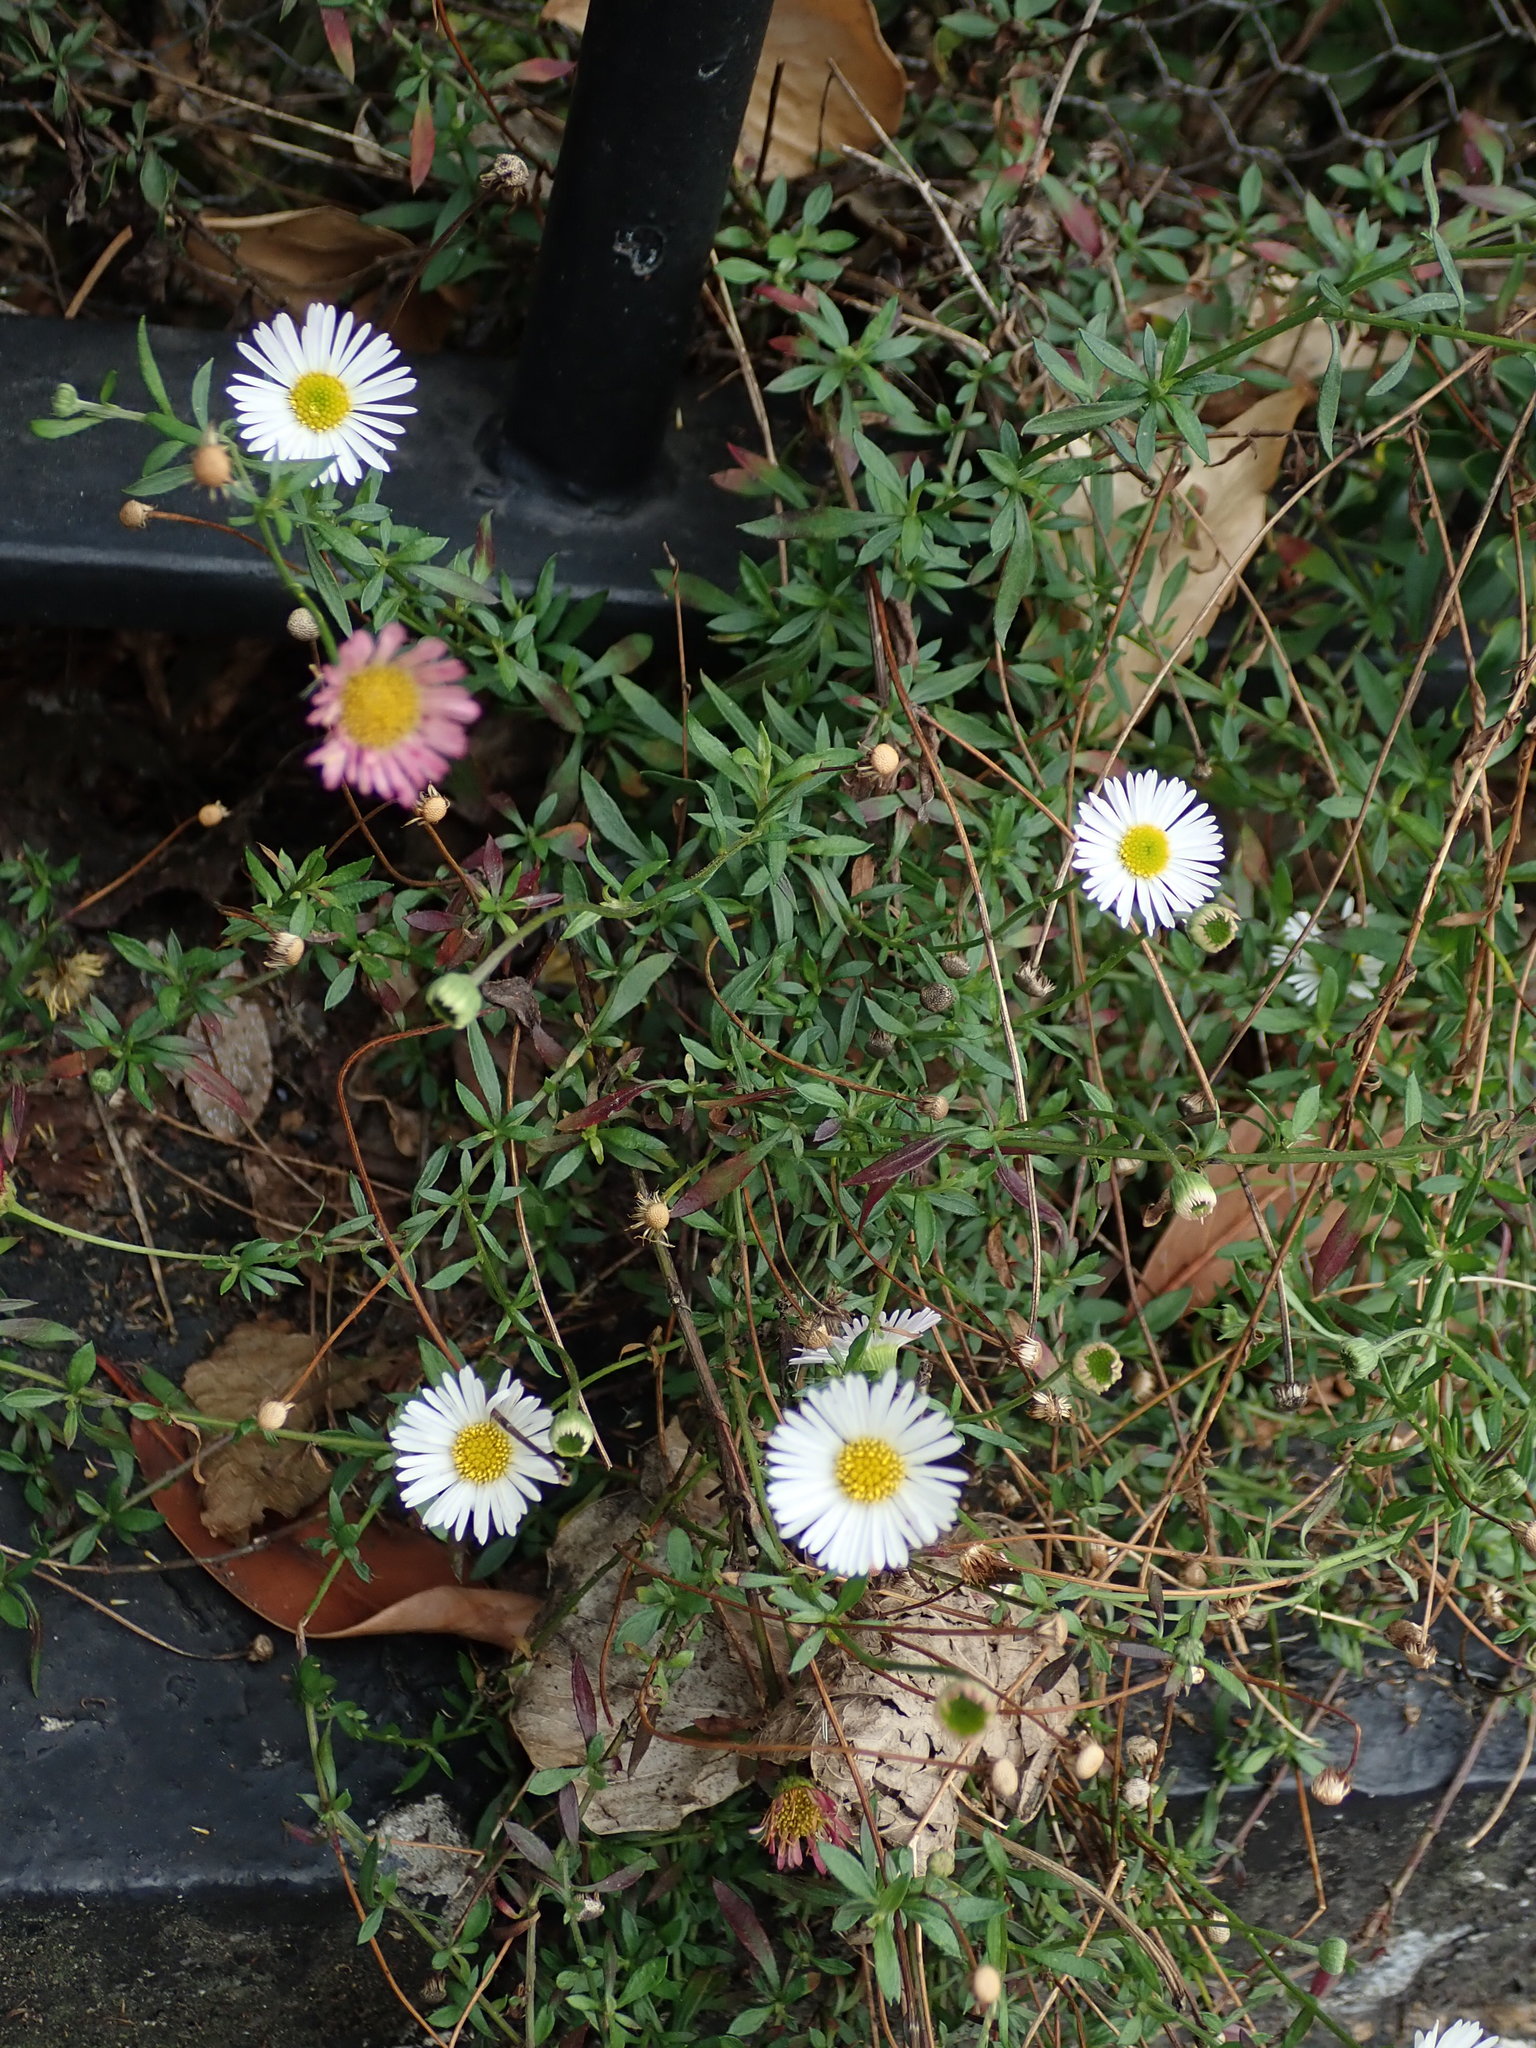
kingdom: Plantae
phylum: Tracheophyta
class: Magnoliopsida
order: Asterales
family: Asteraceae
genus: Erigeron
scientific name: Erigeron karvinskianus
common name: Mexican fleabane
